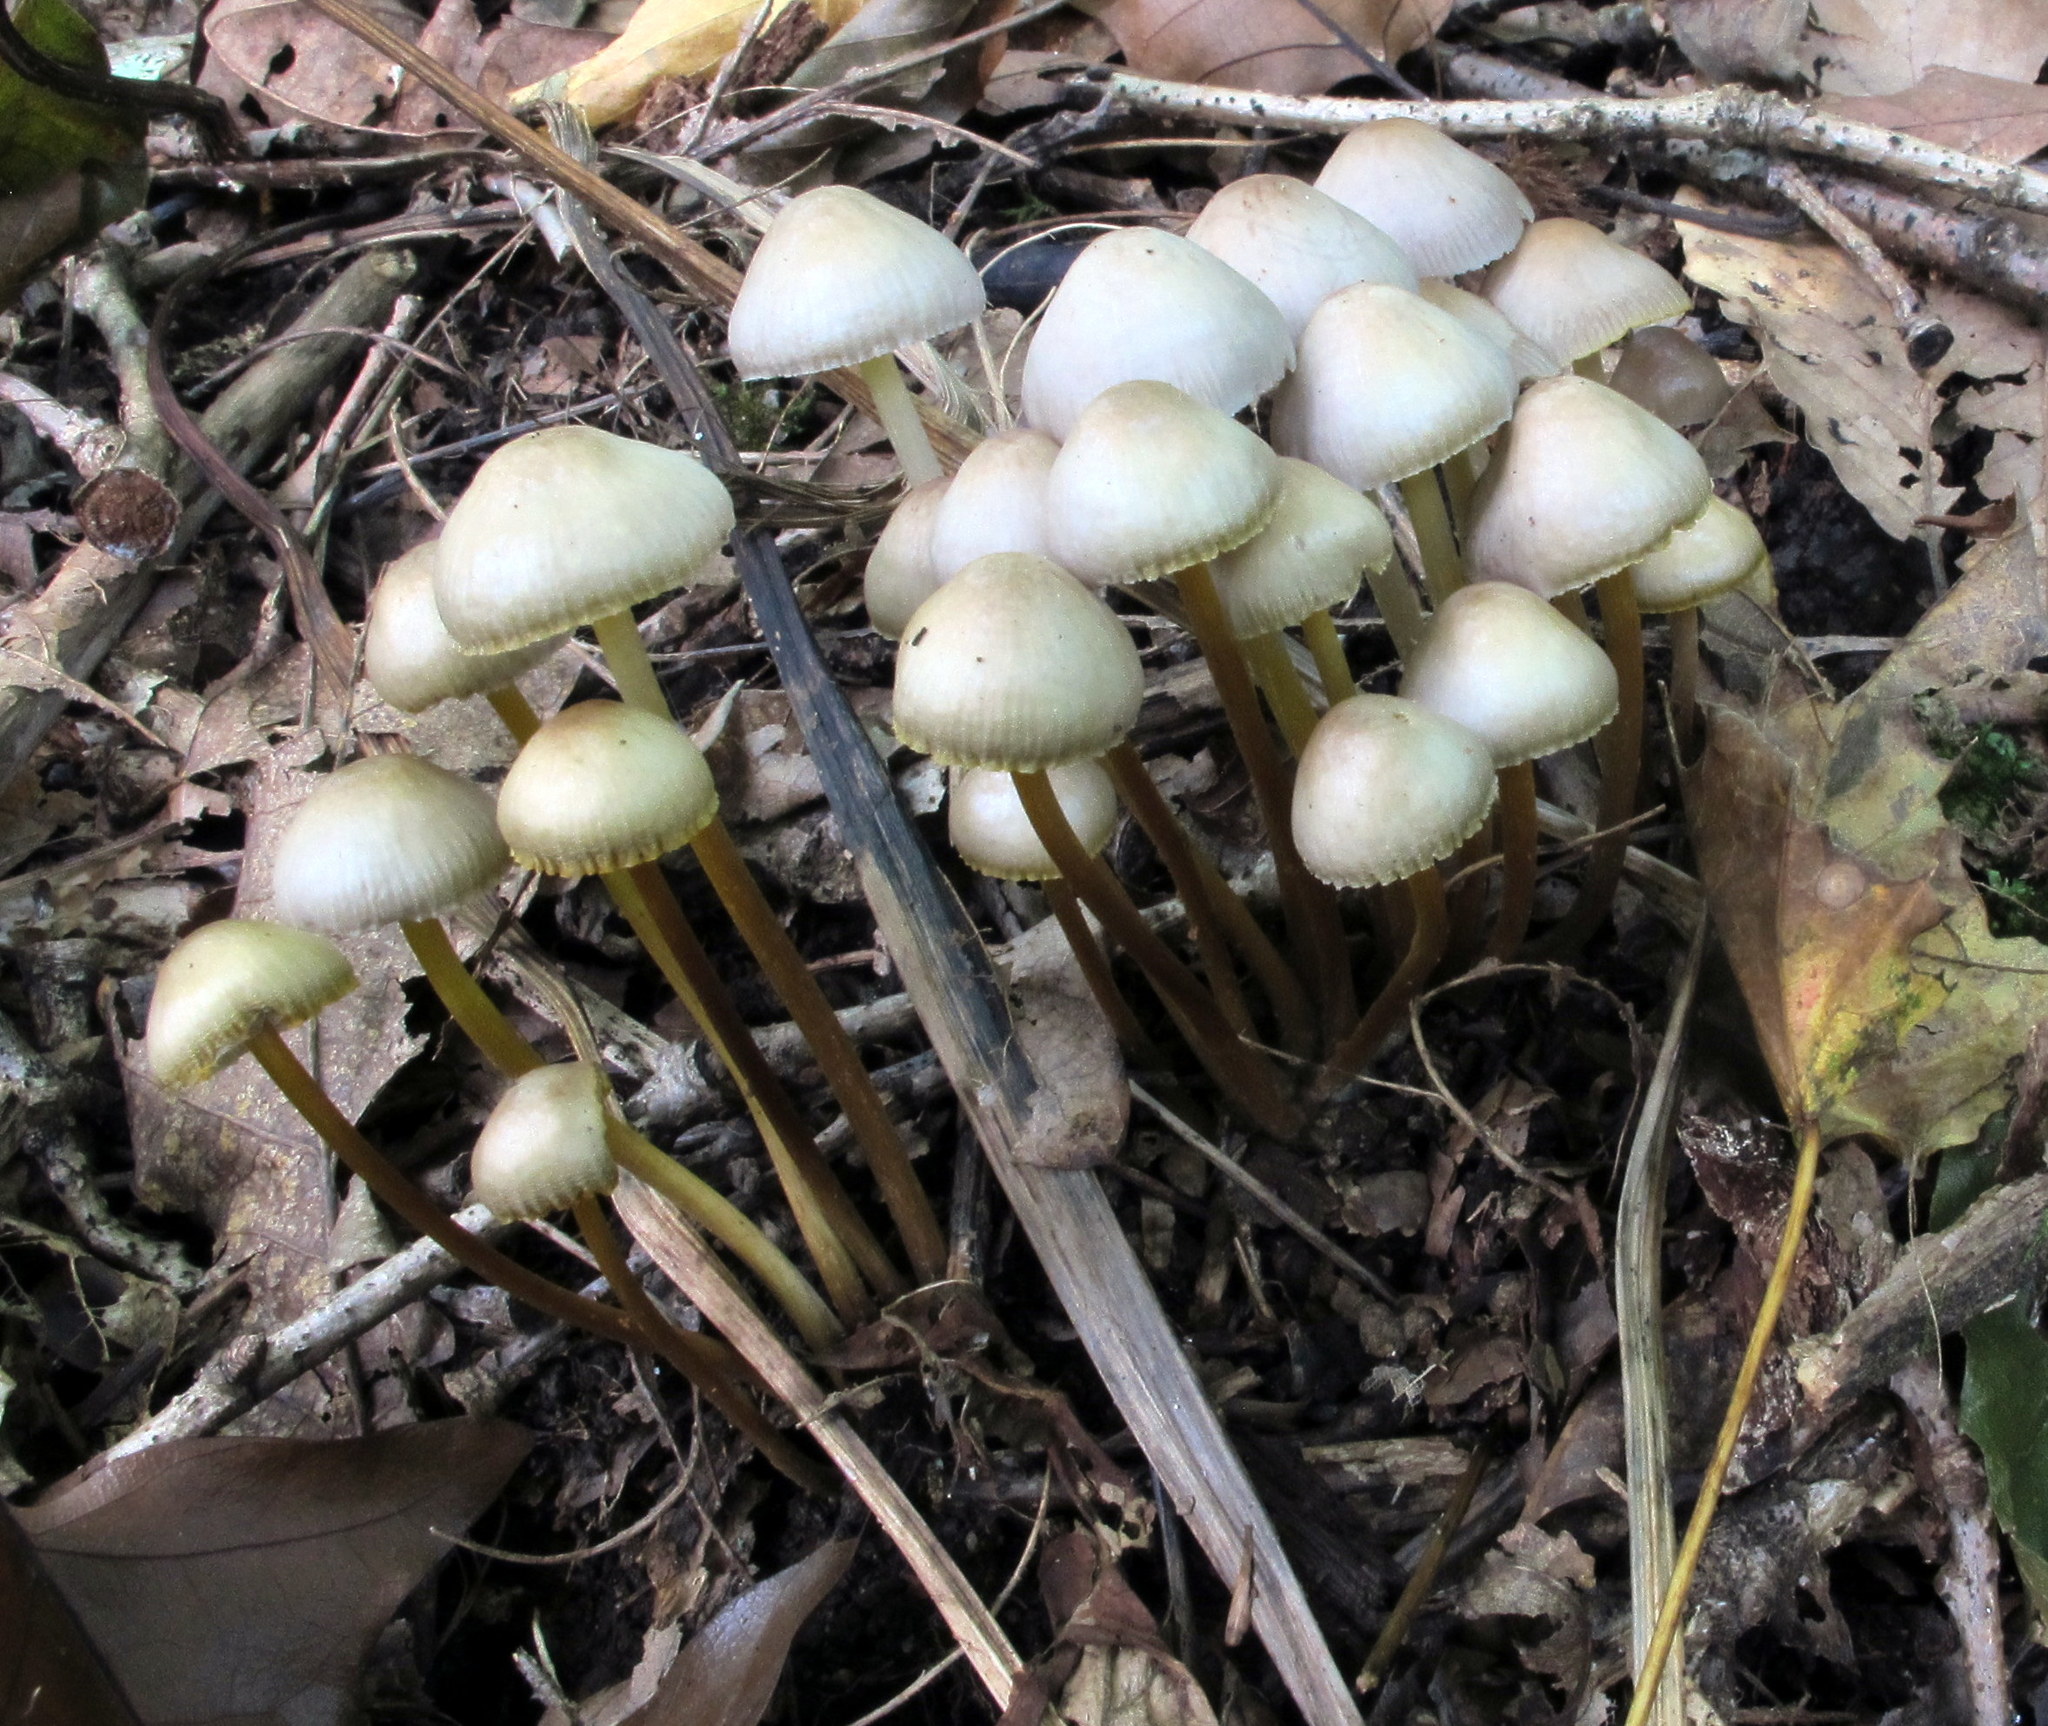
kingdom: Fungi
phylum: Basidiomycota
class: Agaricomycetes
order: Agaricales
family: Mycenaceae
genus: Mycena
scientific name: Mycena inclinata
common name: Clustered bonnet
